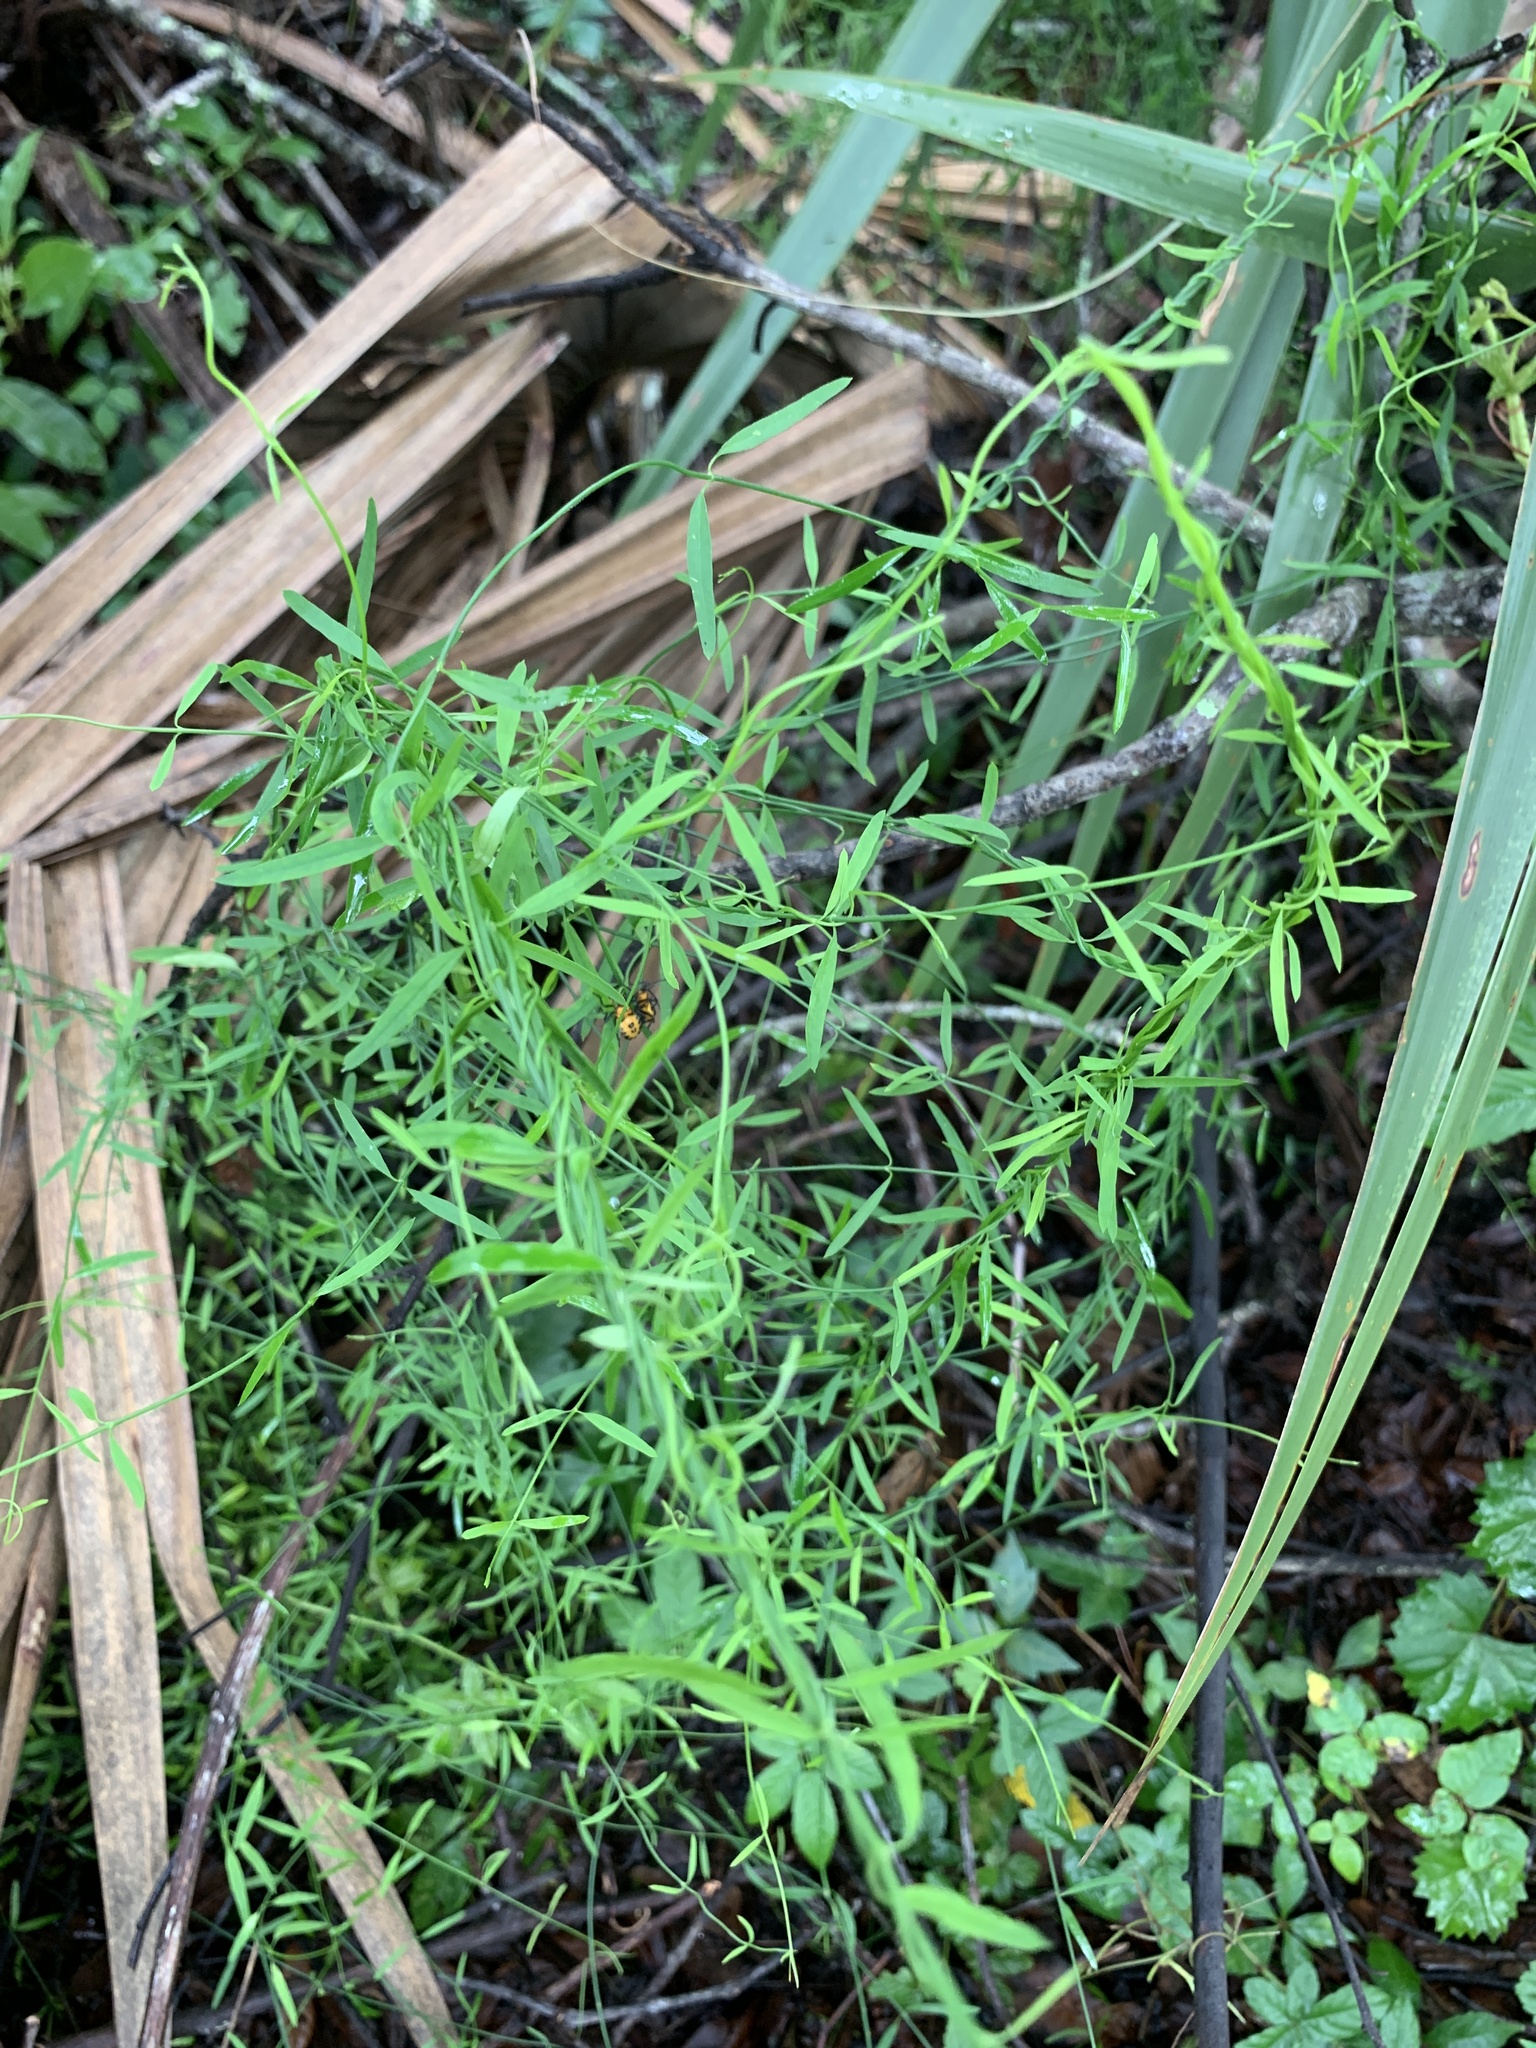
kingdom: Plantae
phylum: Tracheophyta
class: Magnoliopsida
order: Gentianales
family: Apocynaceae
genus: Orthosia
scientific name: Orthosia scoparia
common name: Leafless swallow-wort
